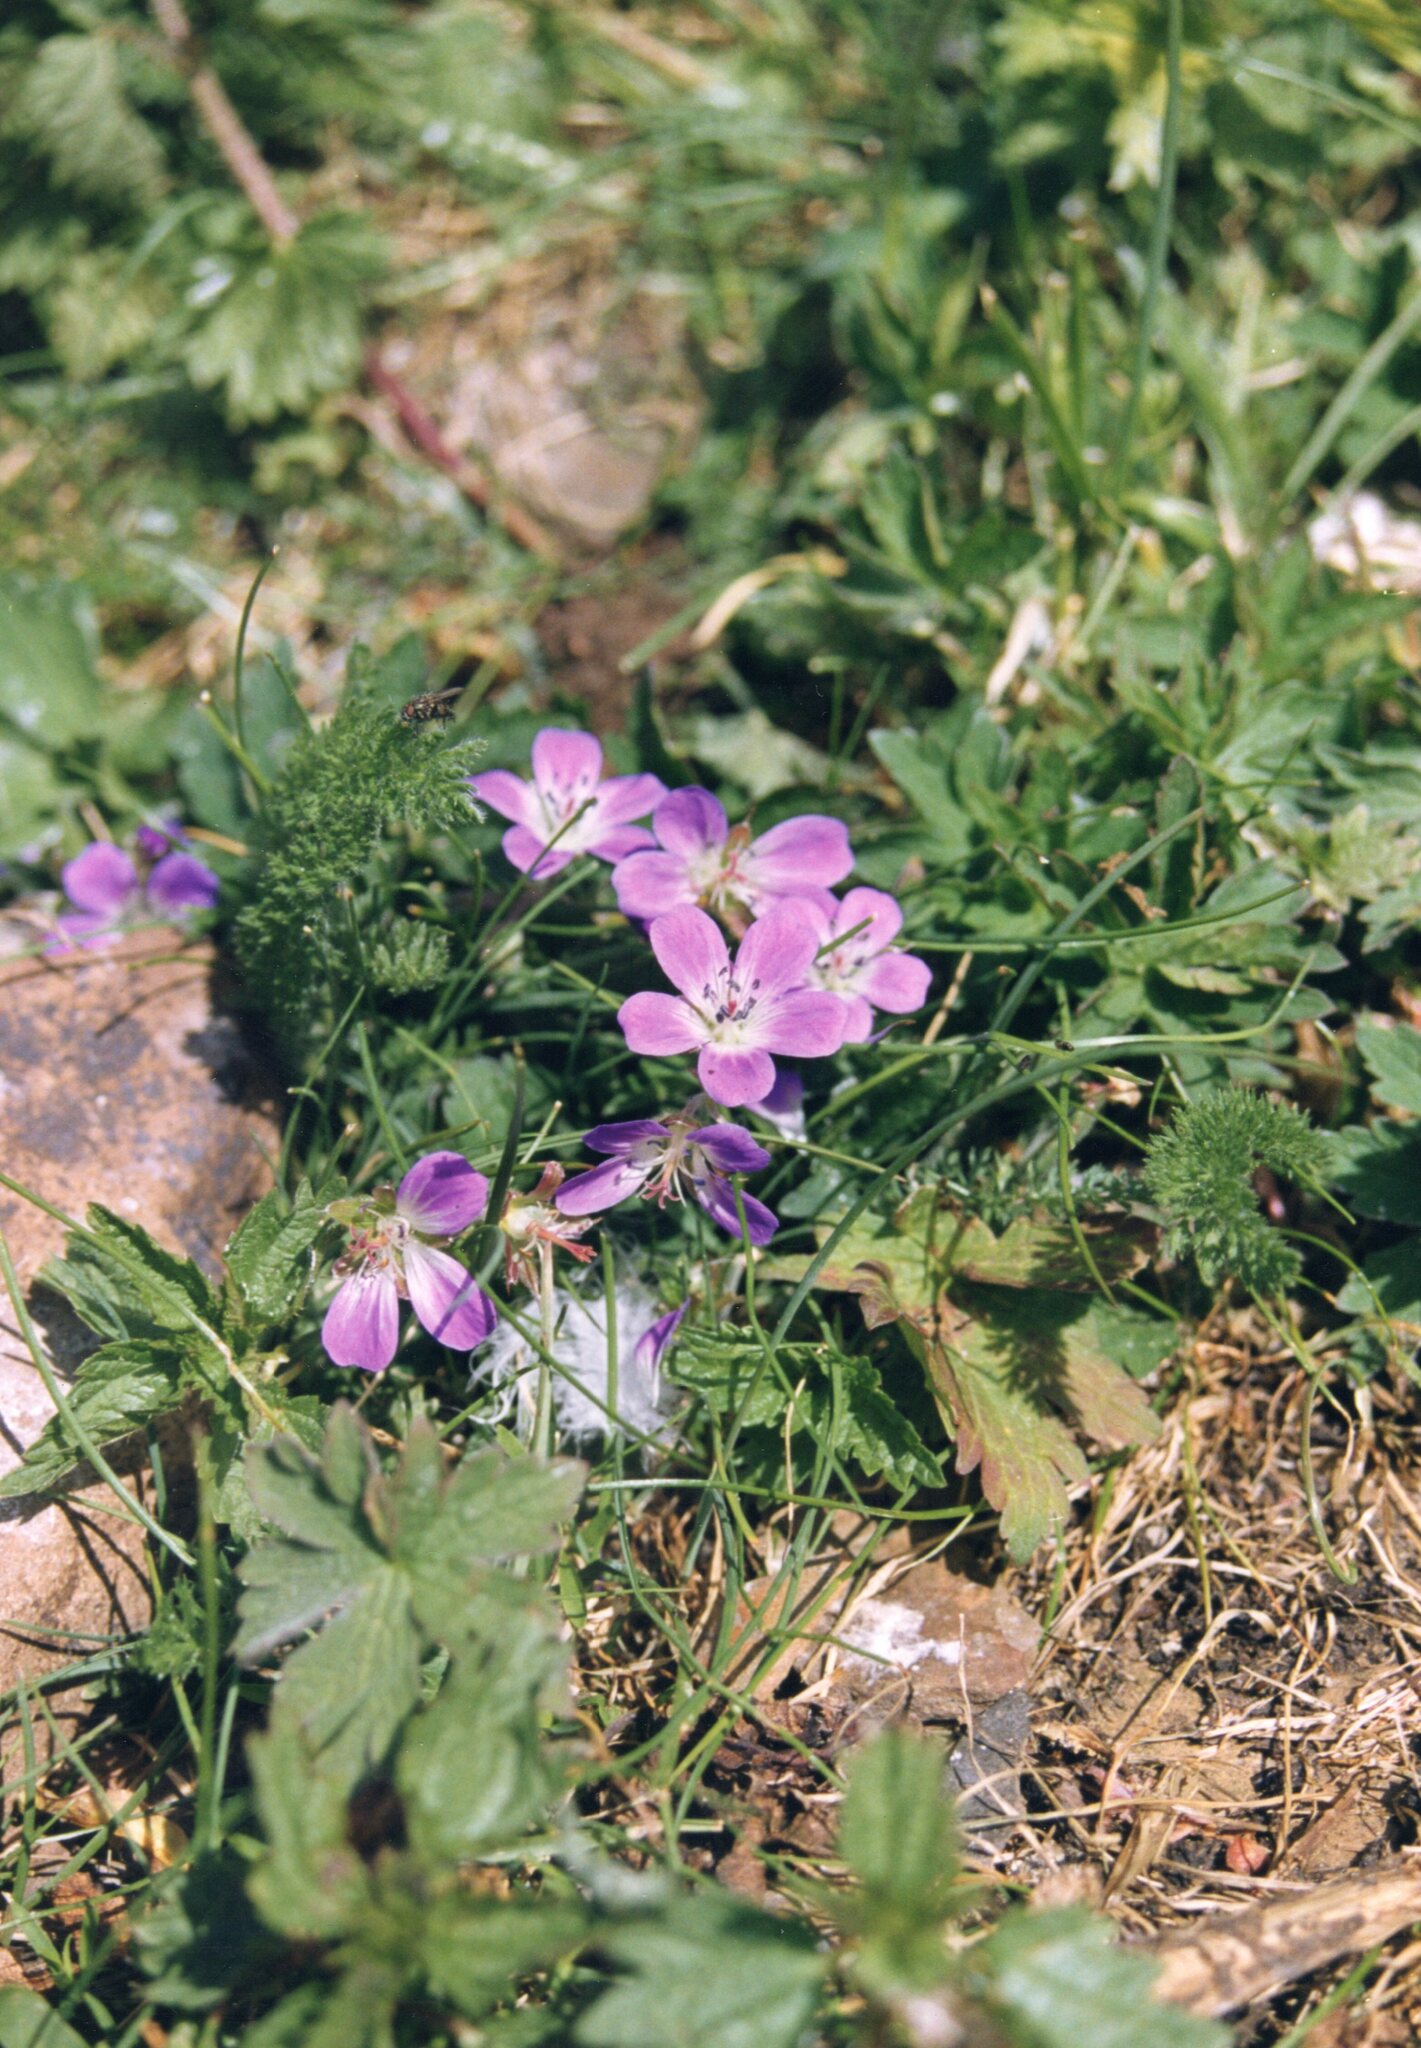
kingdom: Plantae
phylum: Tracheophyta
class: Magnoliopsida
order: Geraniales
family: Geraniaceae
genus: Geranium
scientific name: Geranium sylvaticum
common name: Wood crane's-bill
